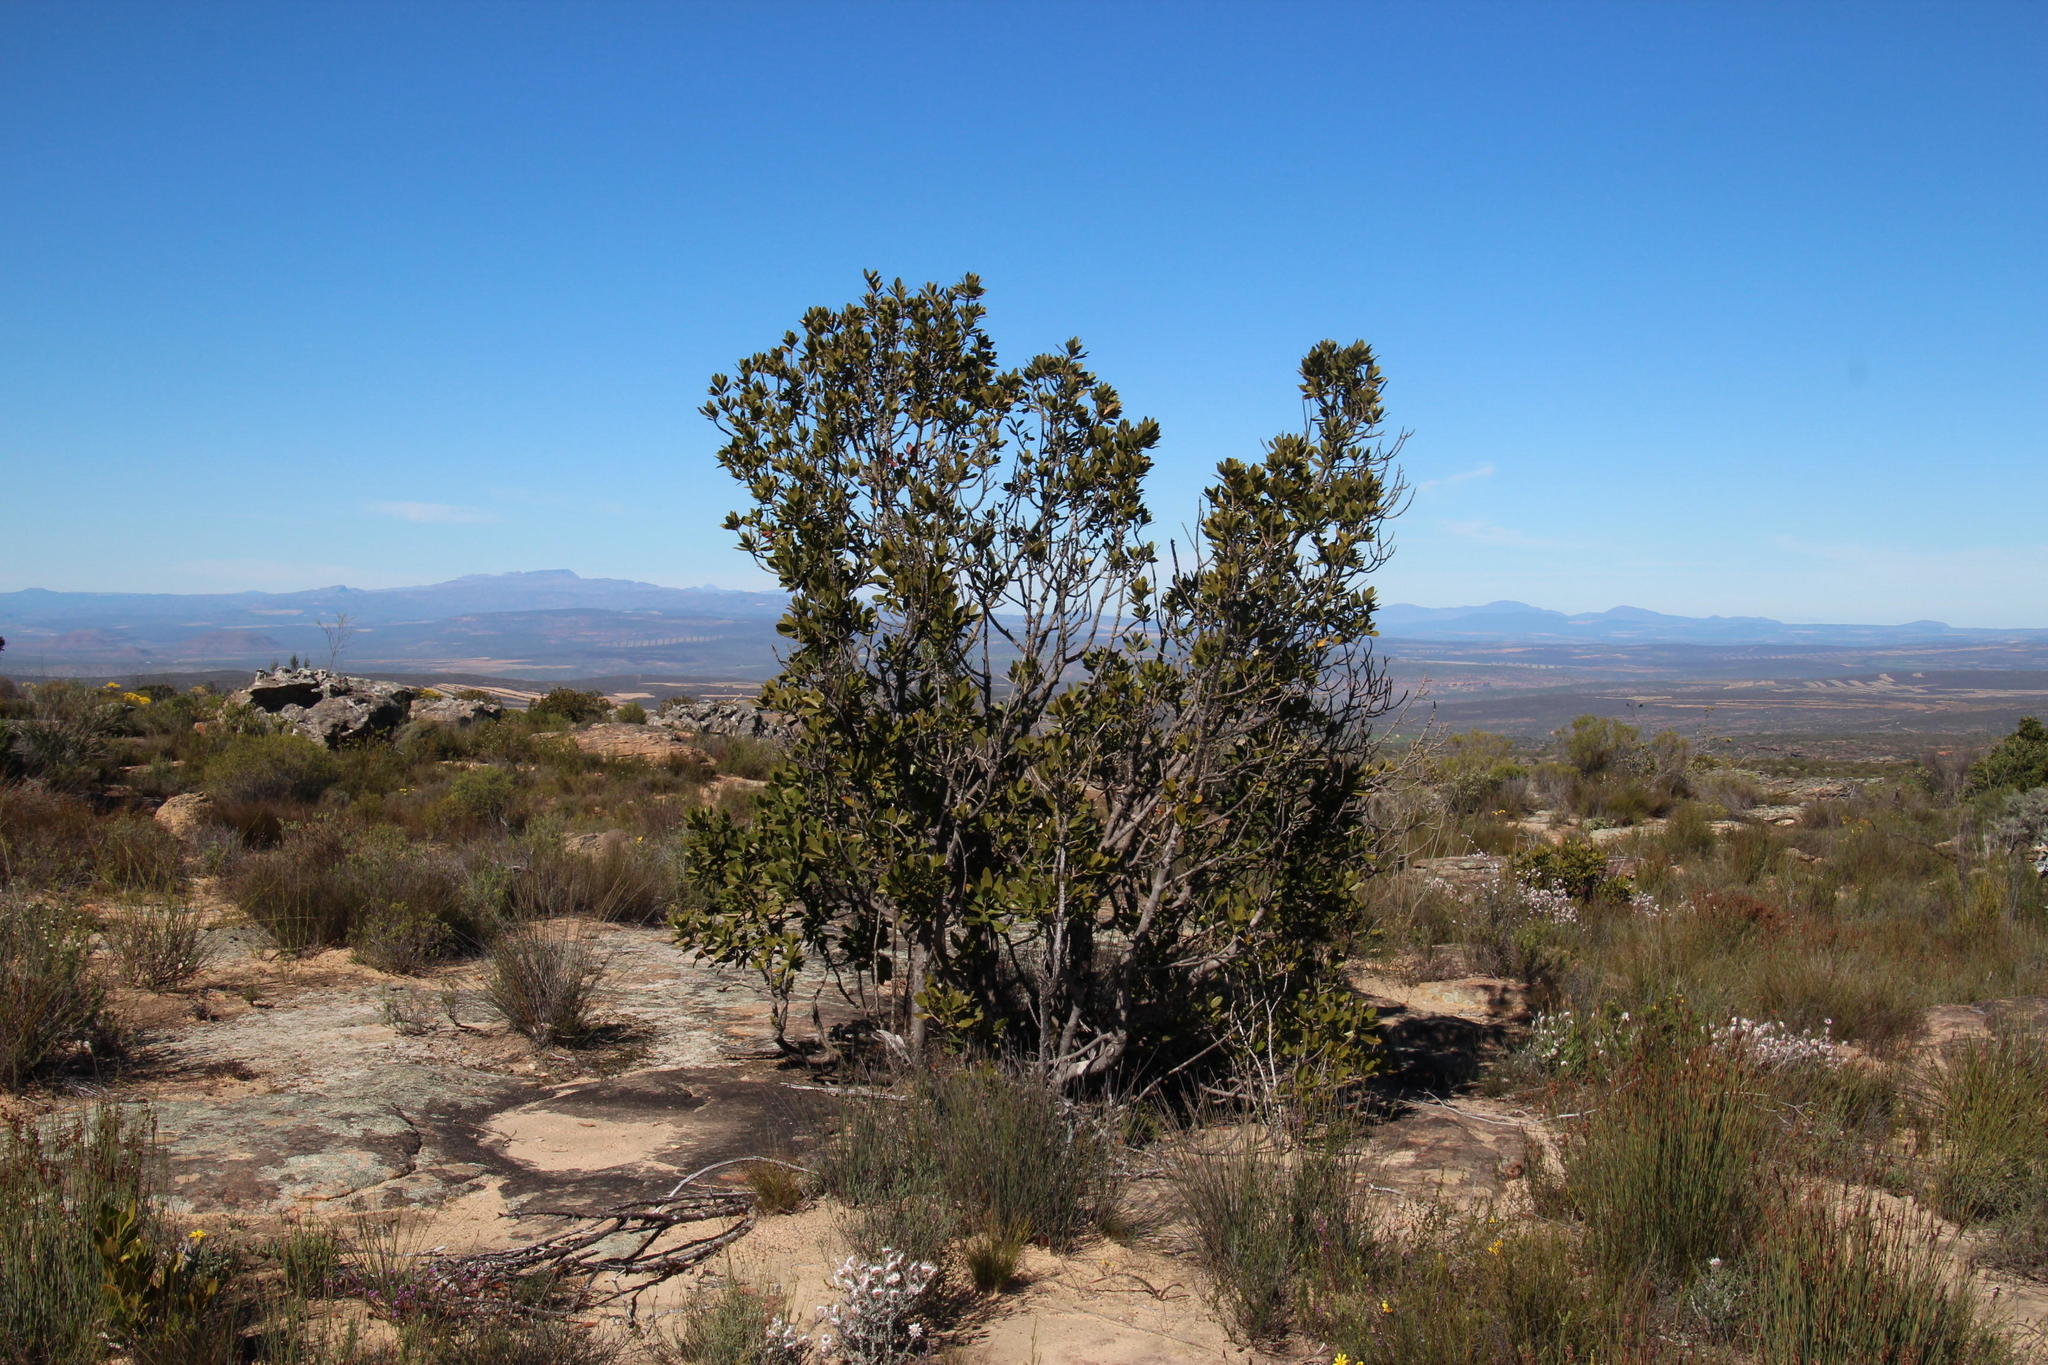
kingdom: Plantae
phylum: Tracheophyta
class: Magnoliopsida
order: Malpighiales
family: Picrodendraceae
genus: Hyaenanche
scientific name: Hyaenanche globosa
